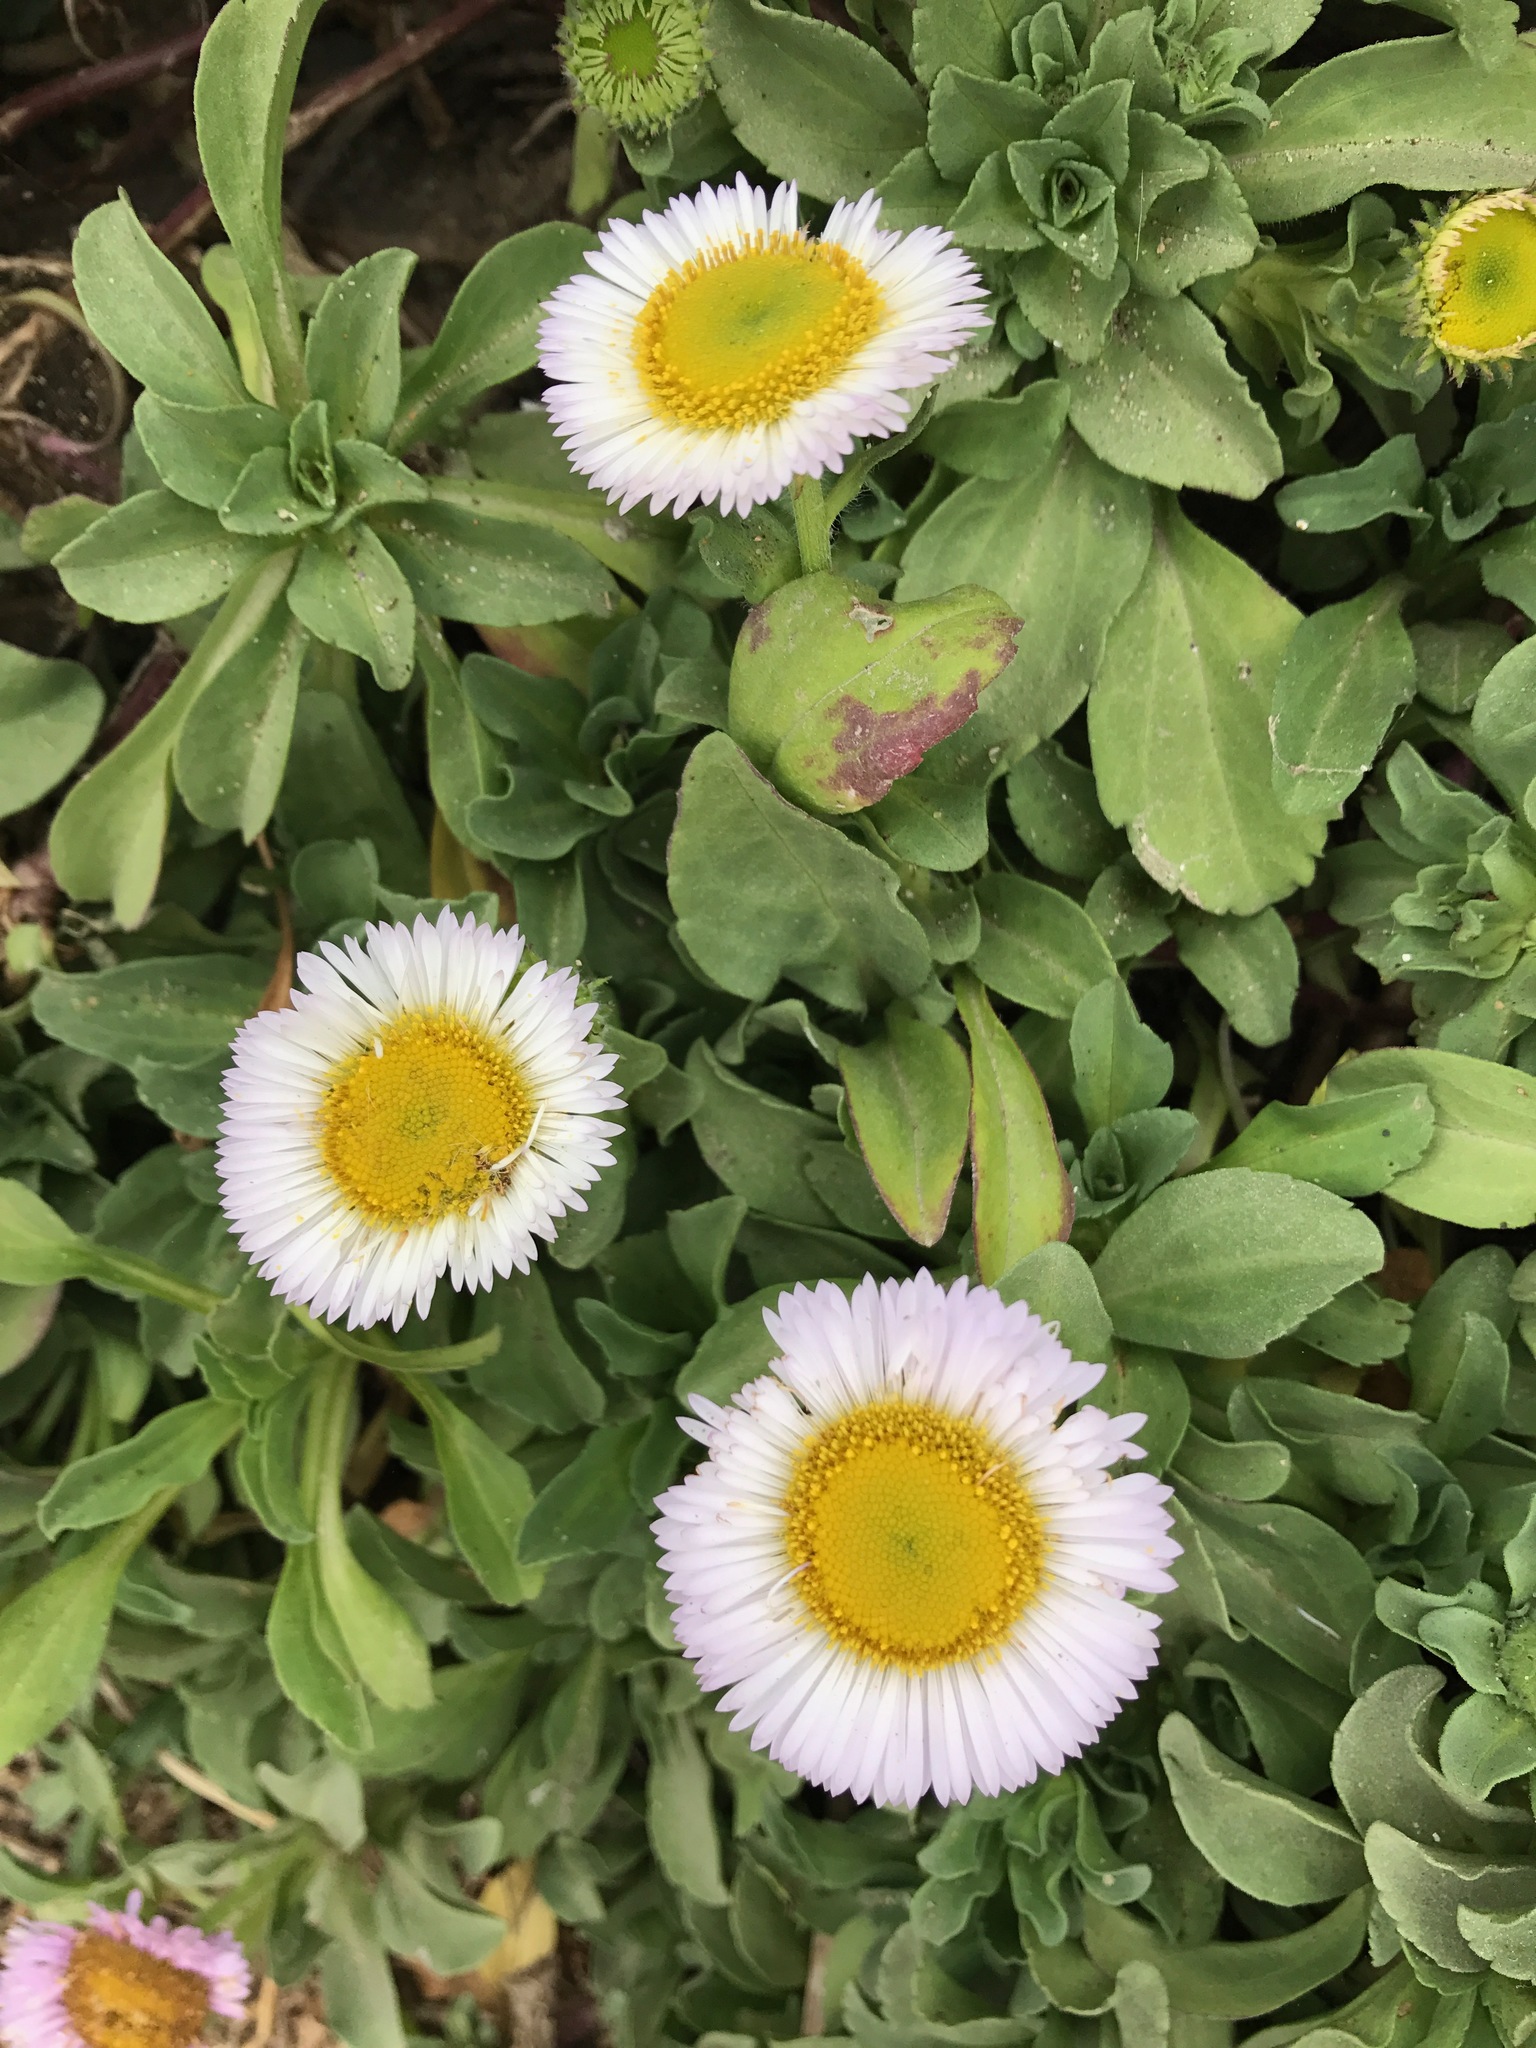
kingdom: Plantae
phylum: Tracheophyta
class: Magnoliopsida
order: Asterales
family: Asteraceae
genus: Erigeron
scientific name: Erigeron glaucus
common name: Seaside daisy
